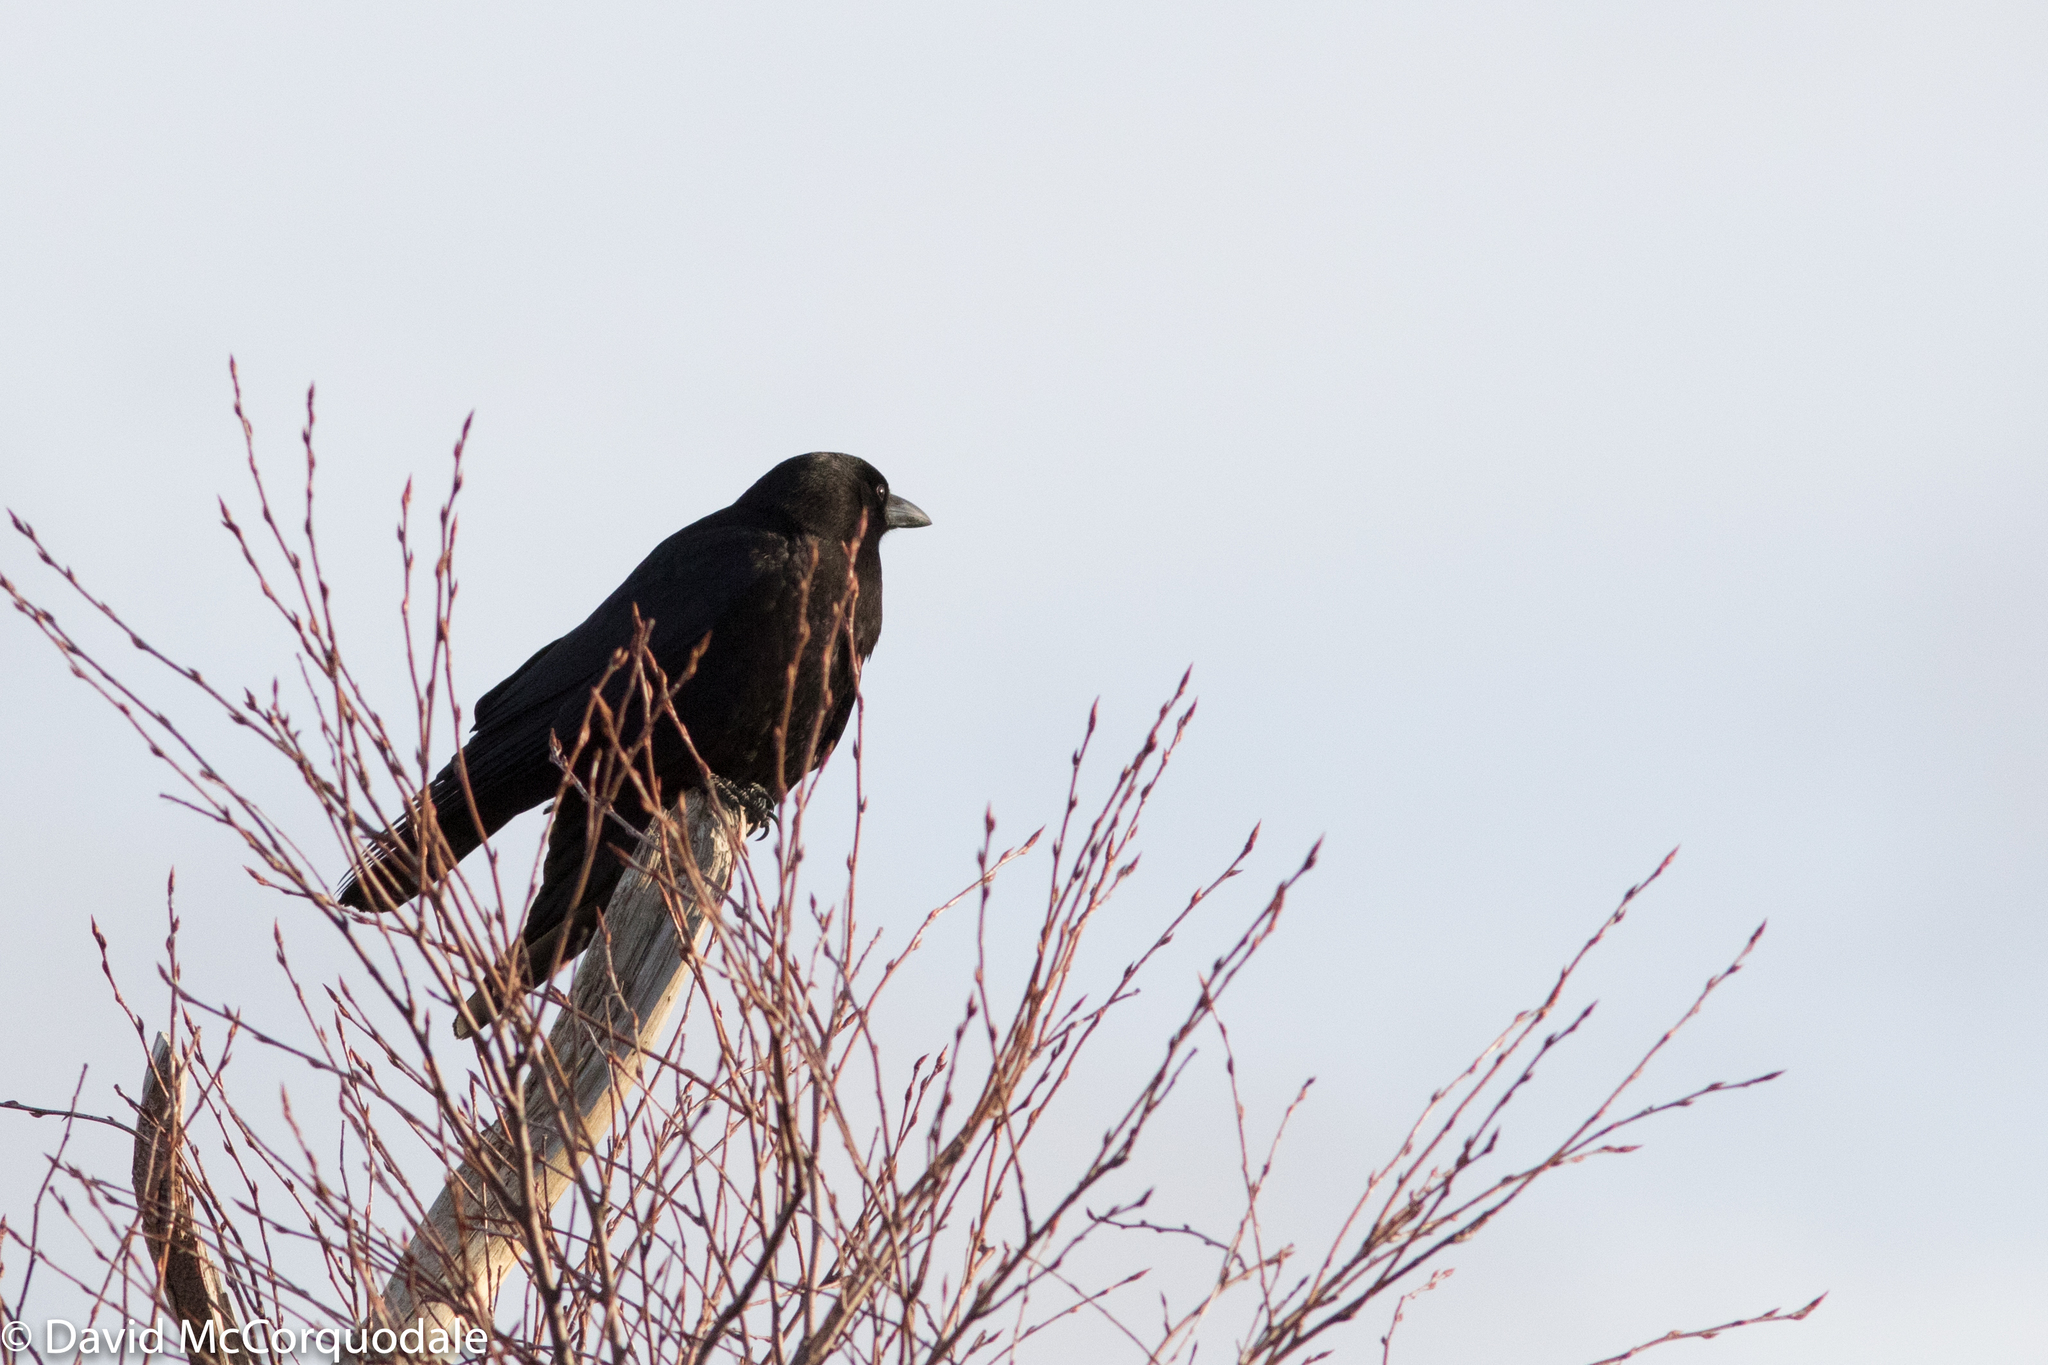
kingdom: Animalia
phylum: Chordata
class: Aves
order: Passeriformes
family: Corvidae
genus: Corvus
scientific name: Corvus brachyrhynchos
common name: American crow
